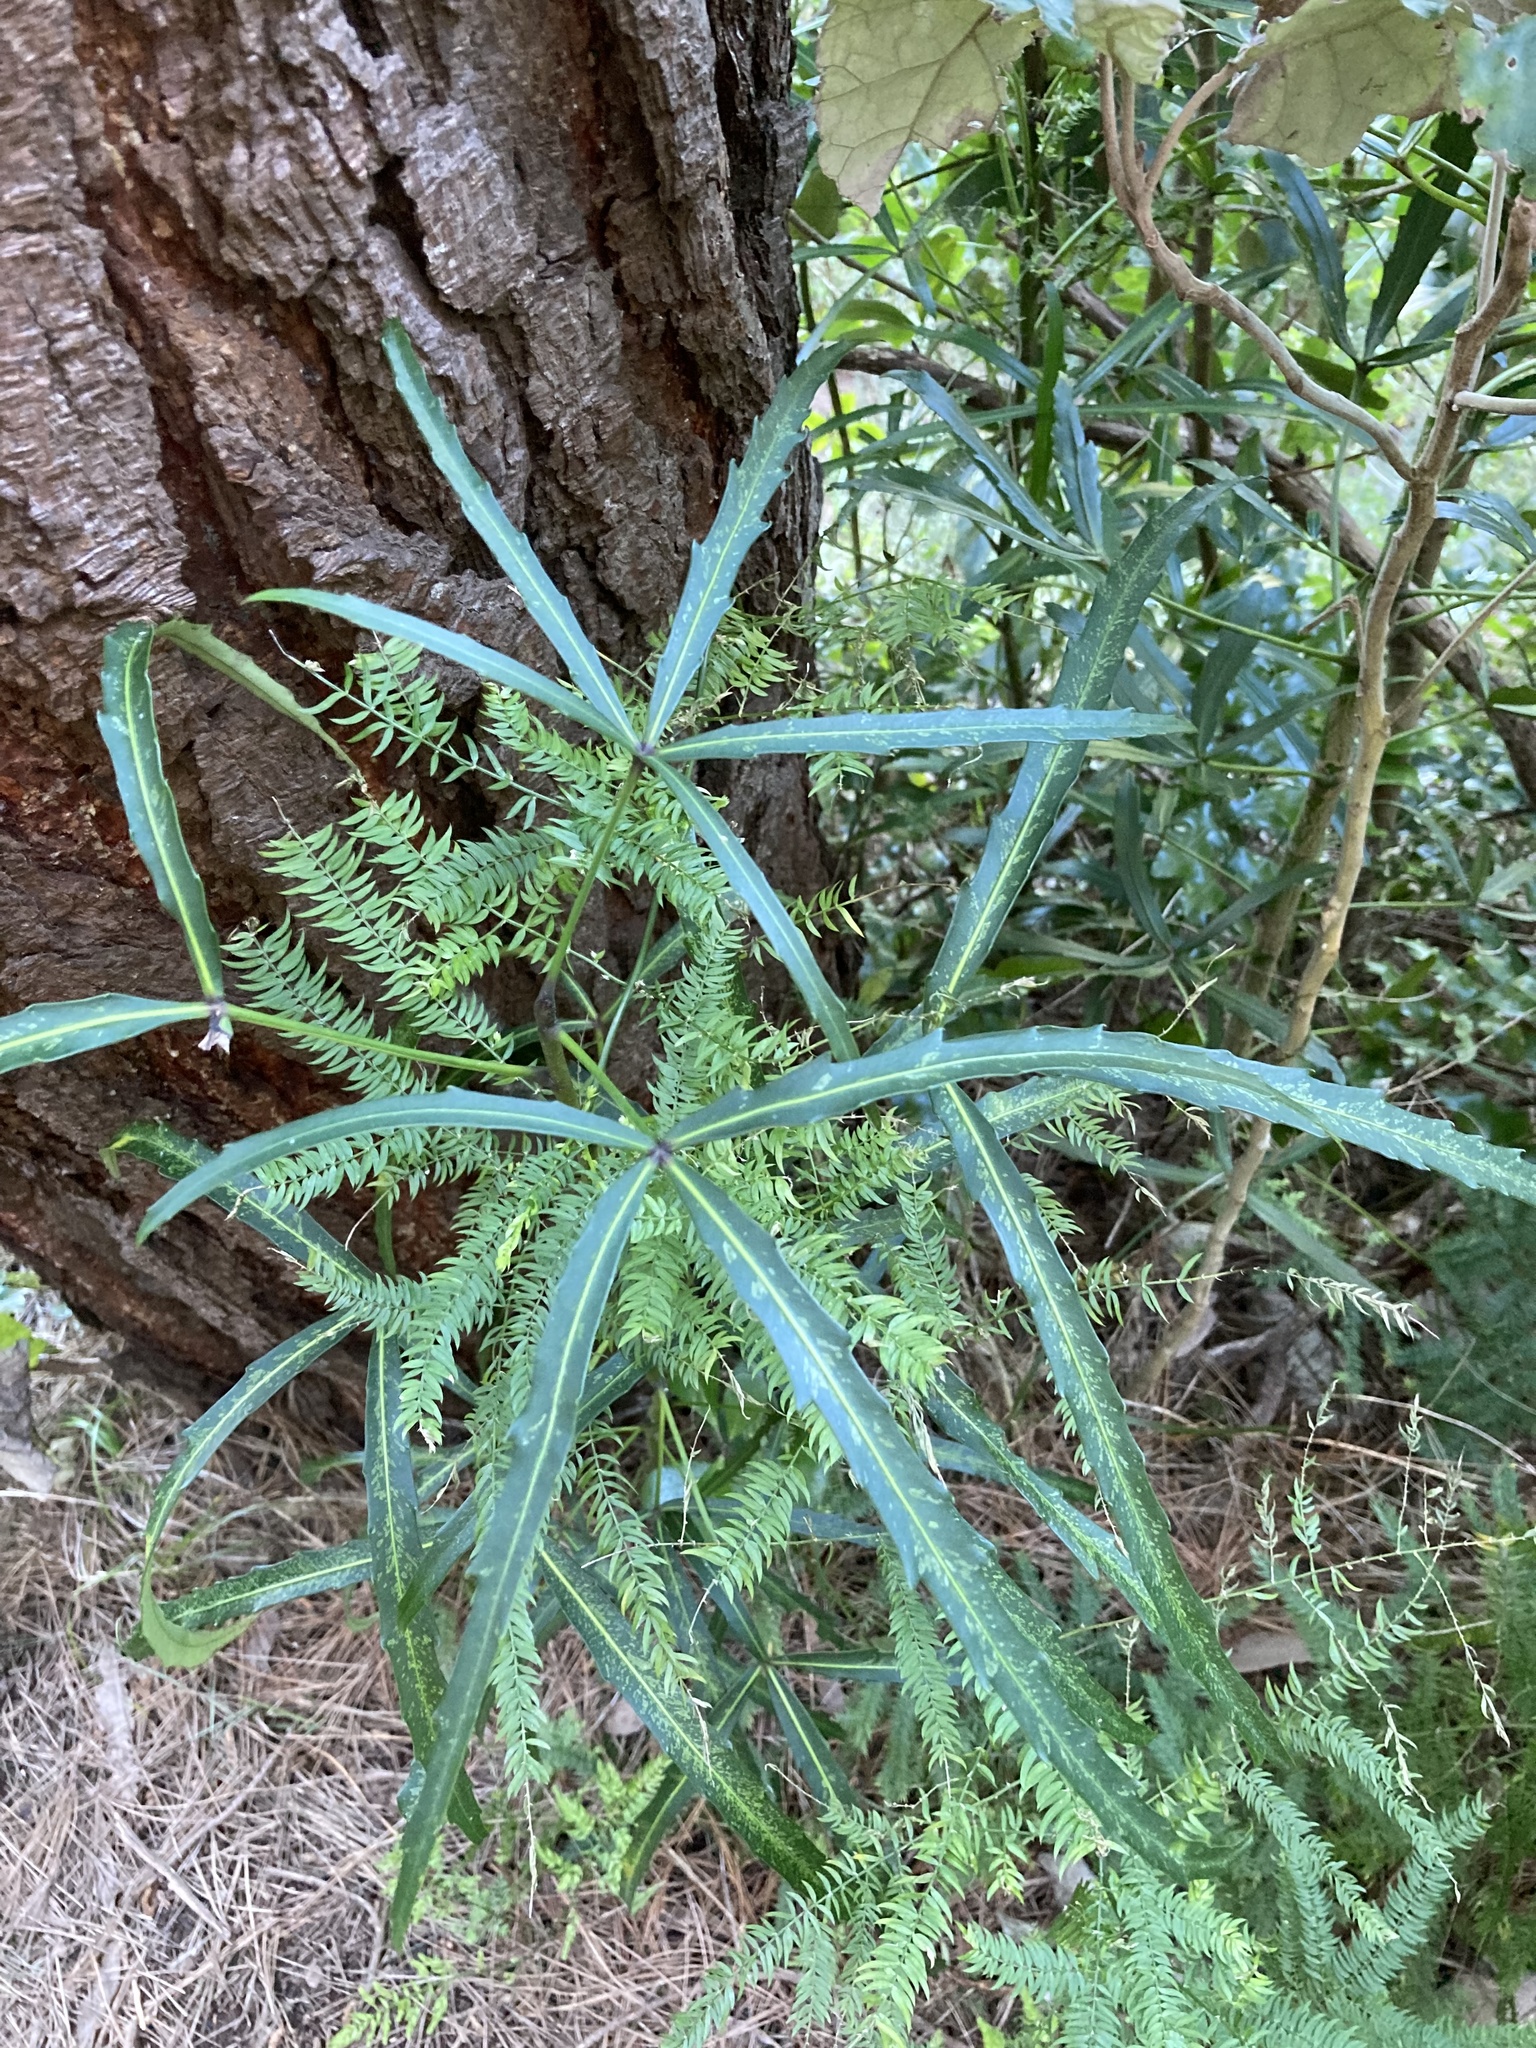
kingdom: Plantae
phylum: Tracheophyta
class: Magnoliopsida
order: Apiales
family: Araliaceae
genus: Pseudopanax
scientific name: Pseudopanax
